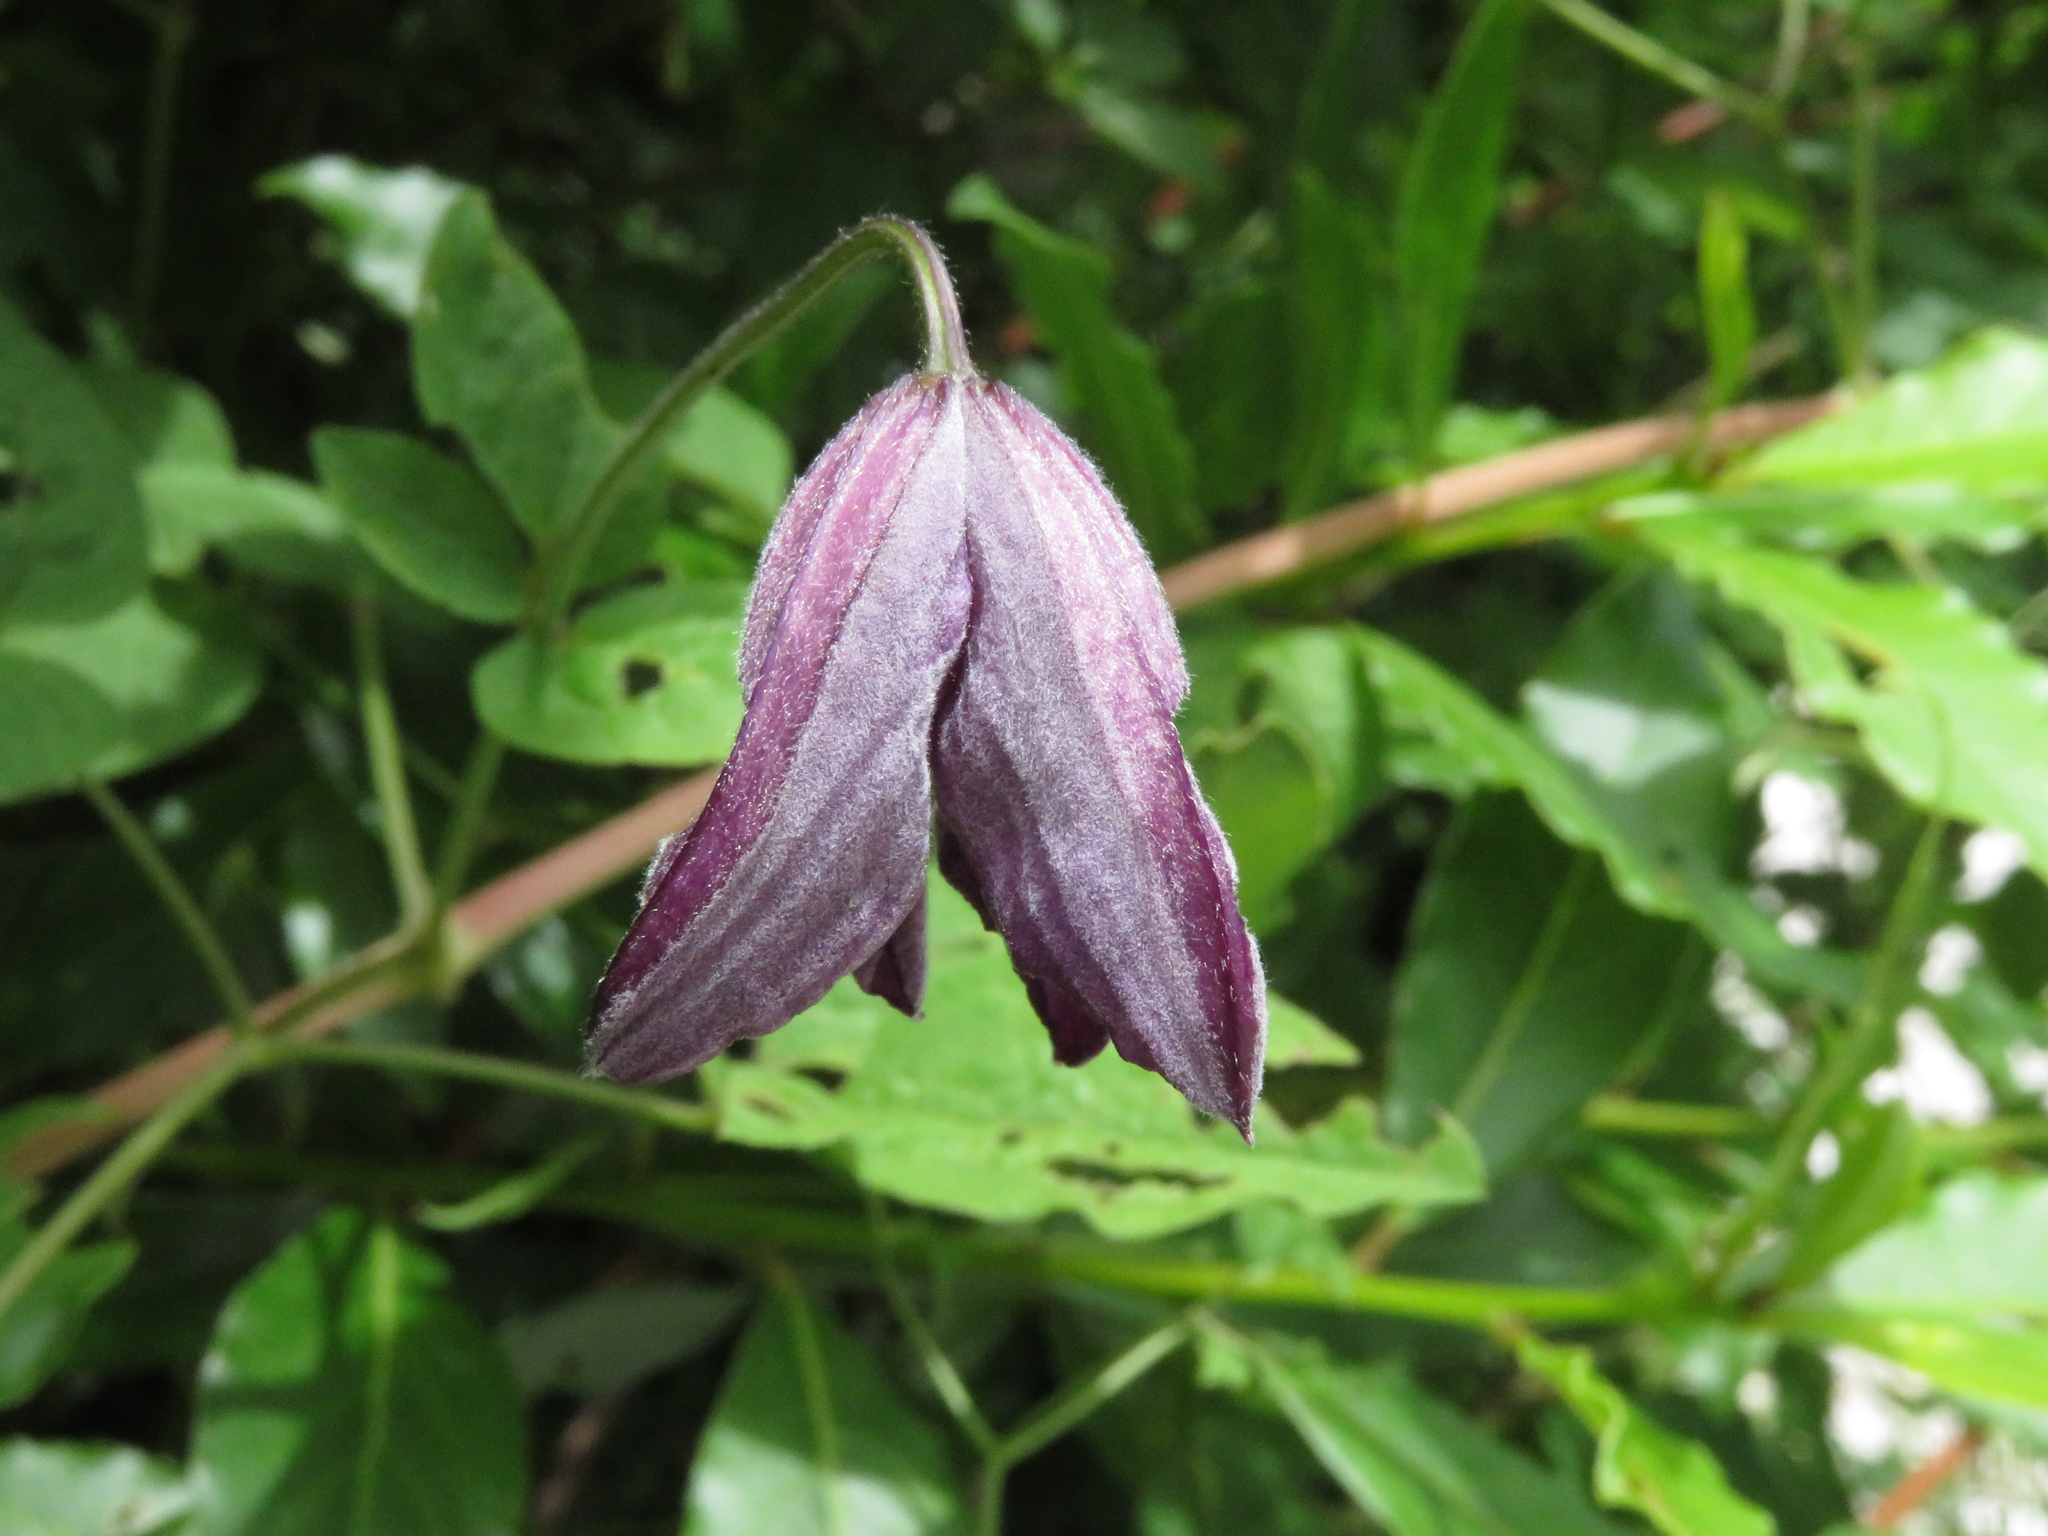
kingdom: Plantae
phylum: Tracheophyta
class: Magnoliopsida
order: Ranunculales
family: Ranunculaceae
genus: Clematis
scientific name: Clematis viticella
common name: Purple clematis
